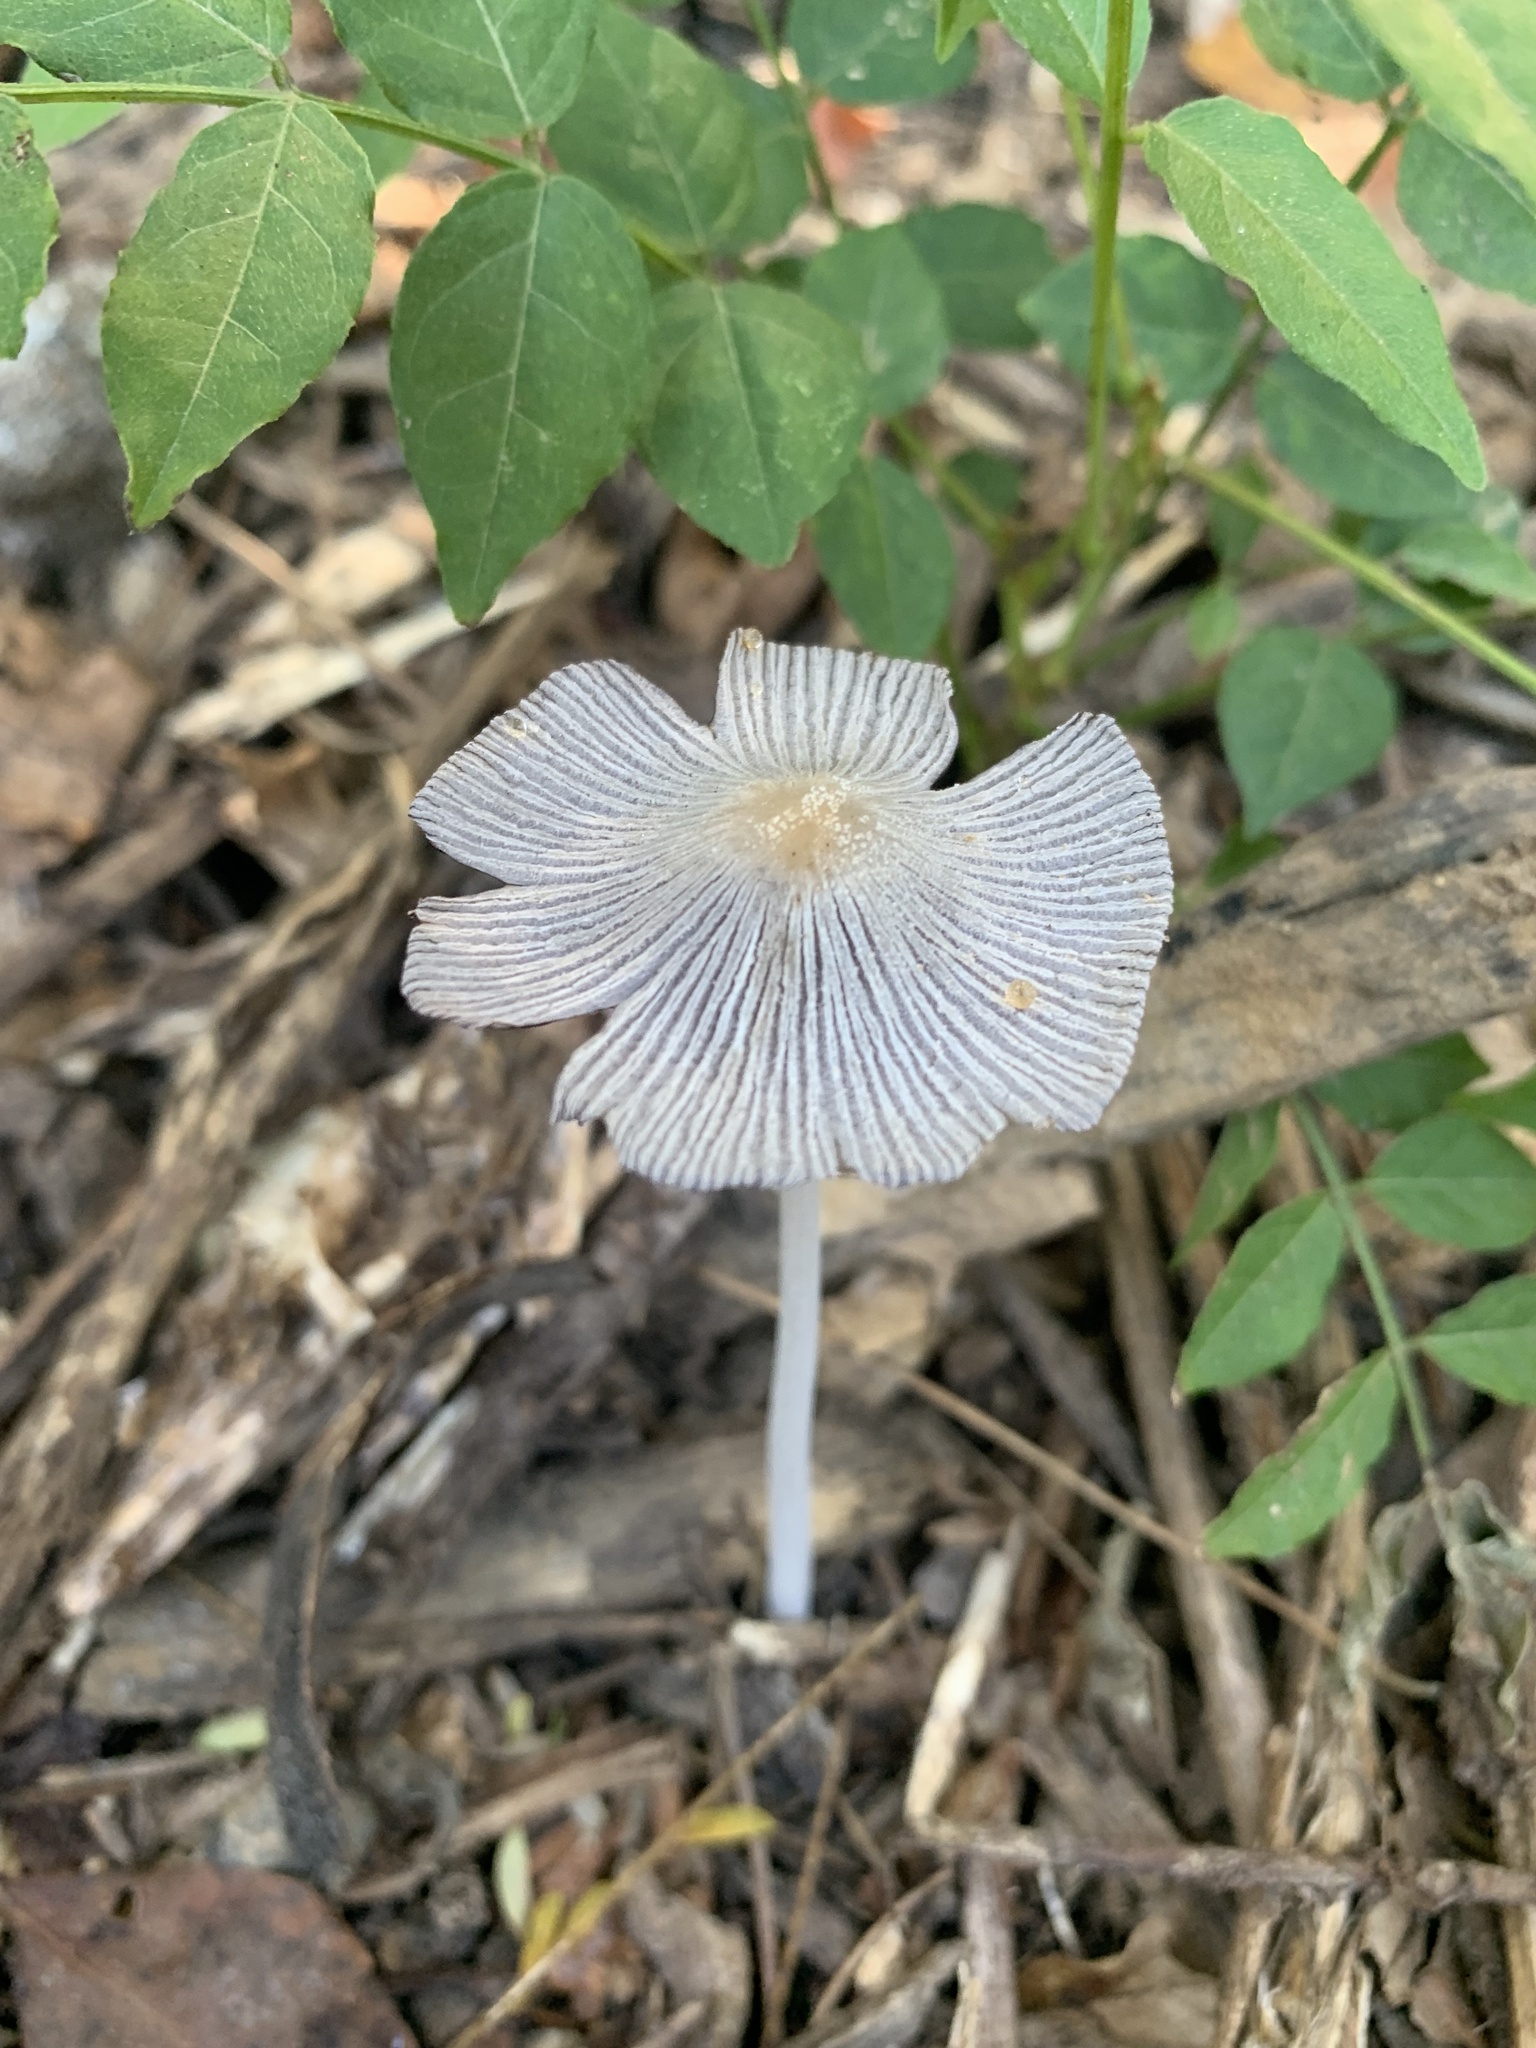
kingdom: Fungi
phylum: Basidiomycota
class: Agaricomycetes
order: Agaricales
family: Psathyrellaceae
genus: Parasola
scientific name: Parasola plicatilis
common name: Pleated inkcap
